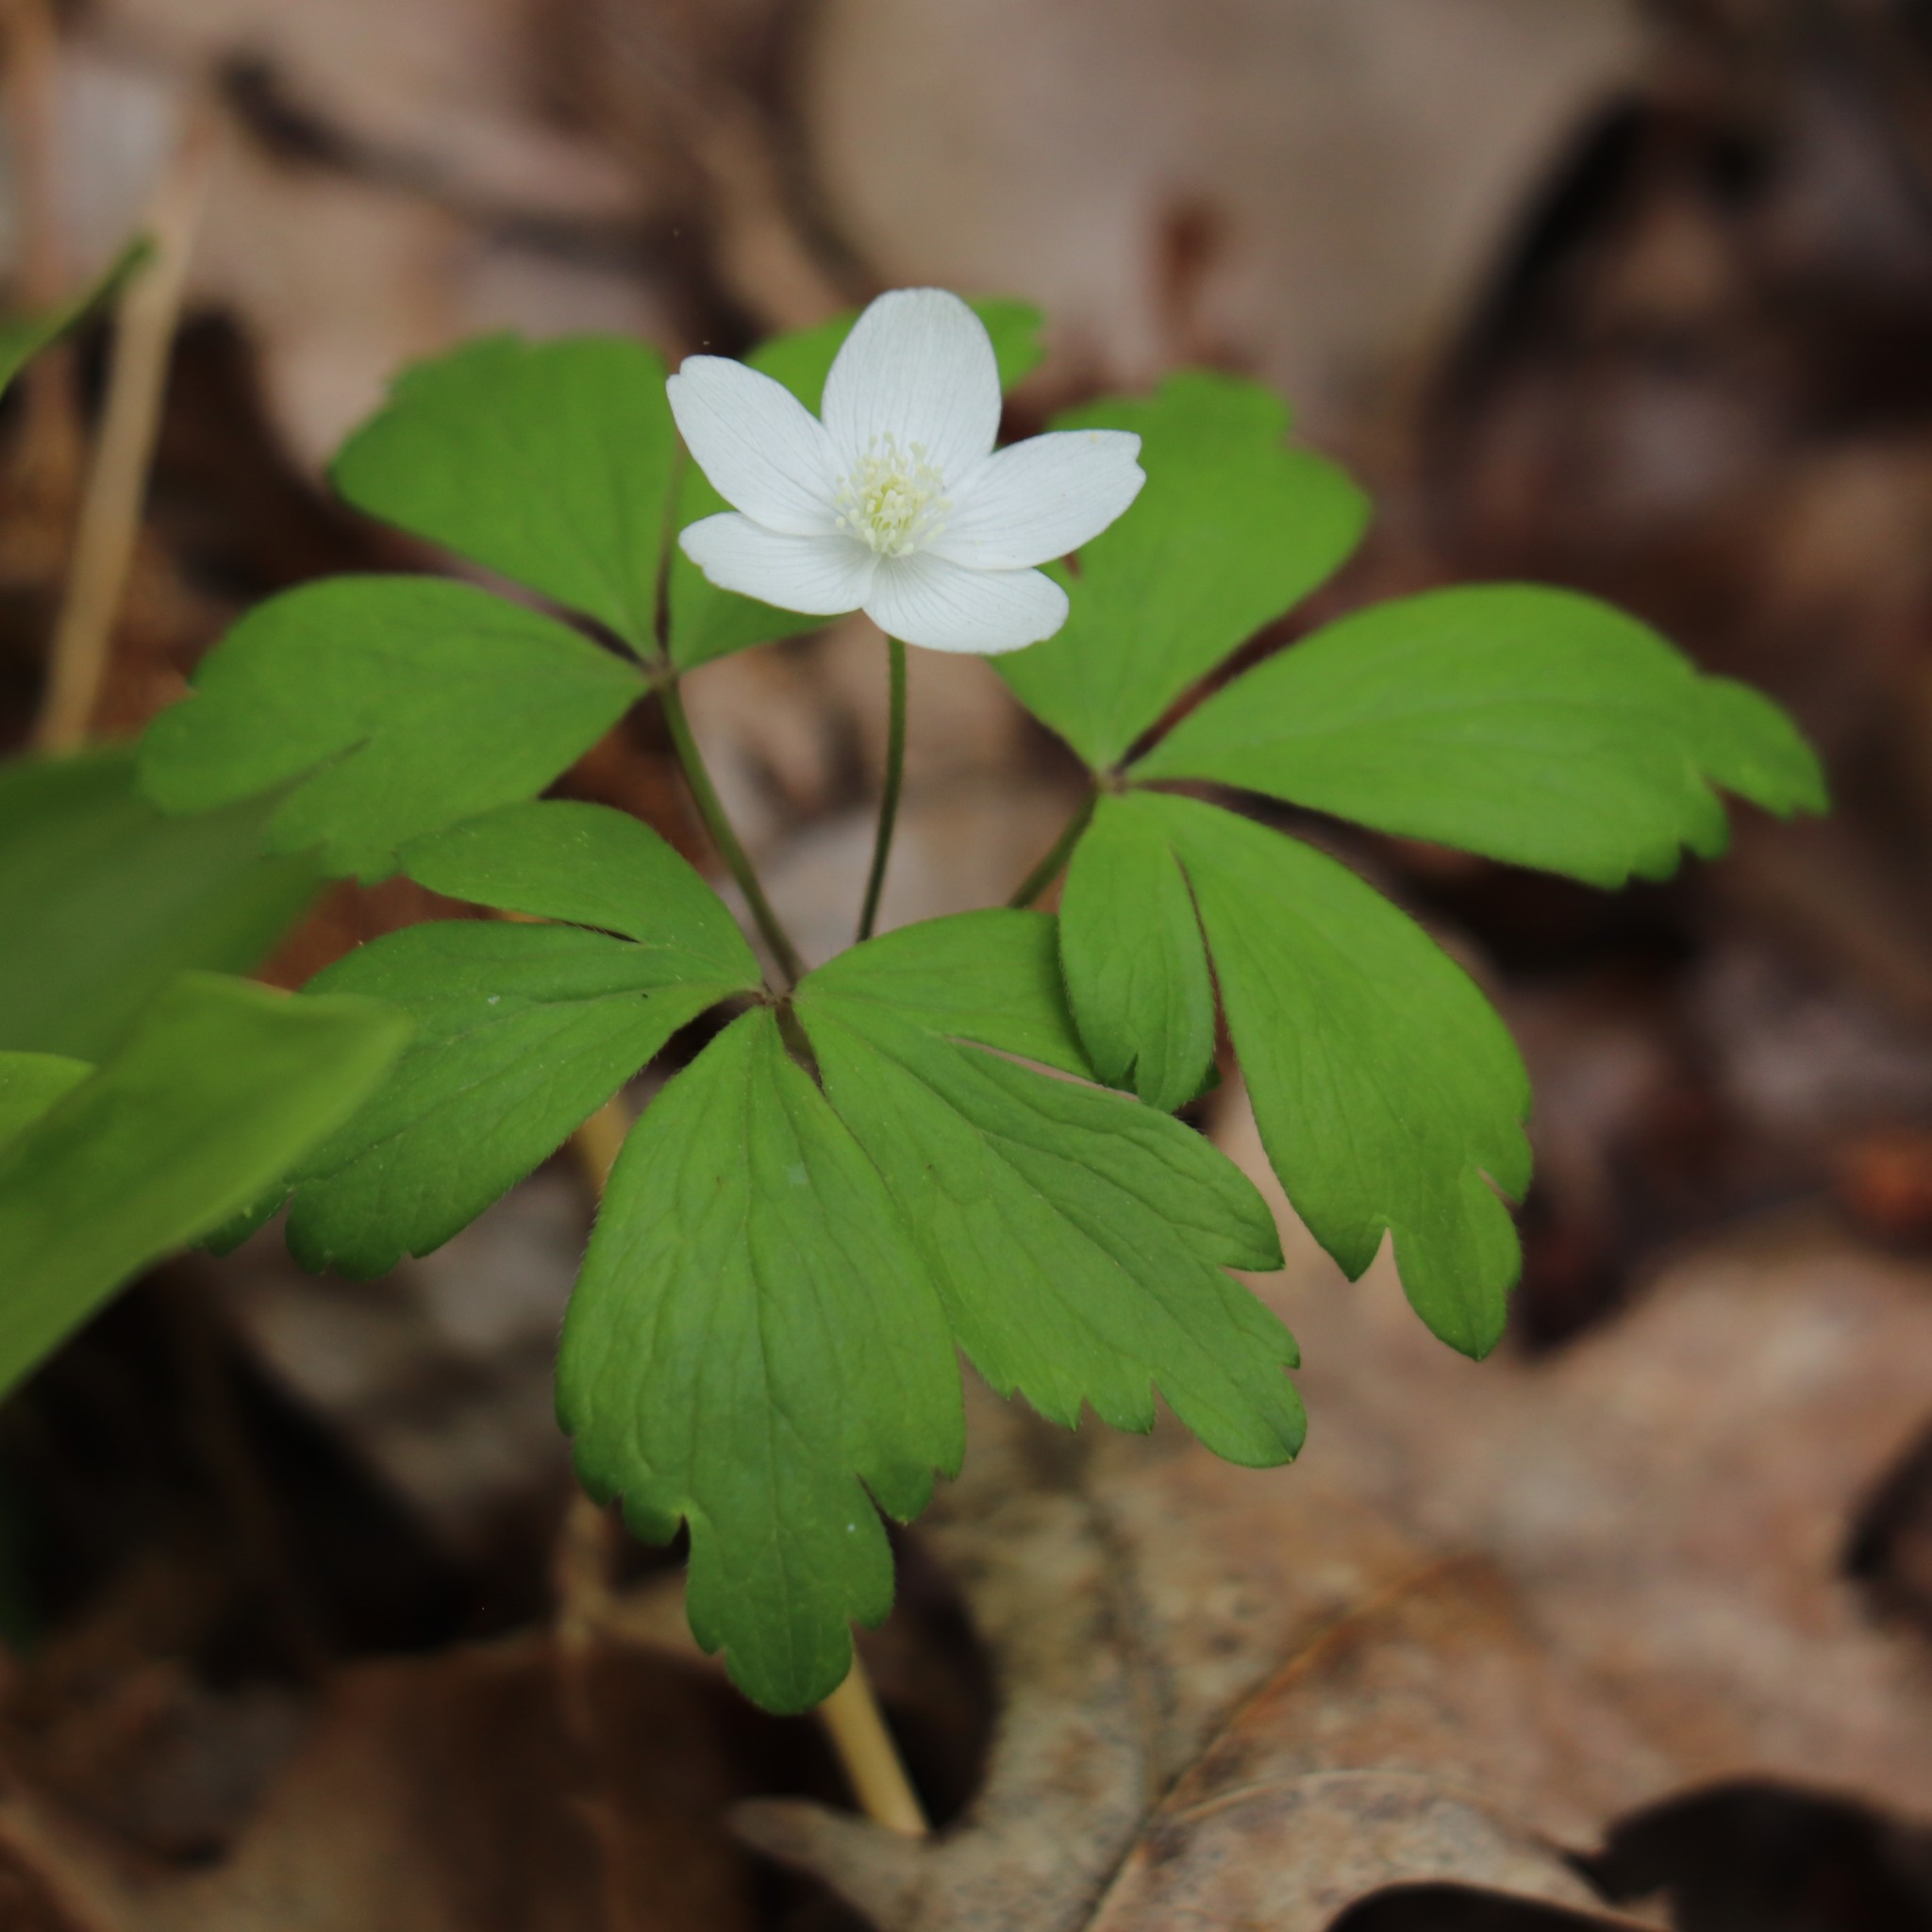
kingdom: Plantae
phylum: Tracheophyta
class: Magnoliopsida
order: Ranunculales
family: Ranunculaceae
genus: Anemone
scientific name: Anemone quinquefolia
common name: Wood anemone
